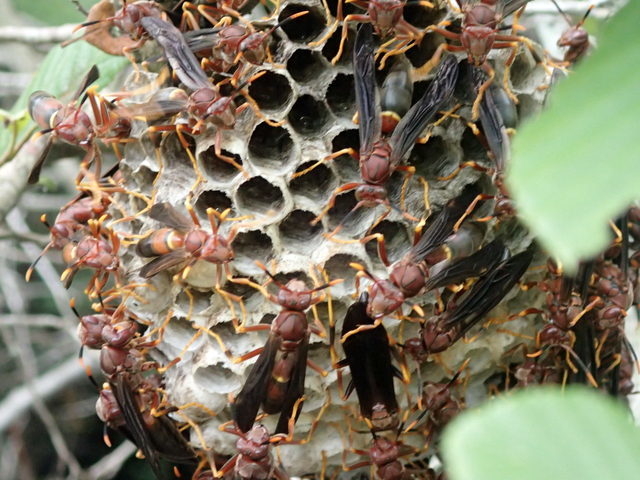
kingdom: Animalia
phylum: Arthropoda
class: Insecta
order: Hymenoptera
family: Eumenidae
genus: Polistes
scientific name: Polistes annularis
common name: Ringed paper wasp
